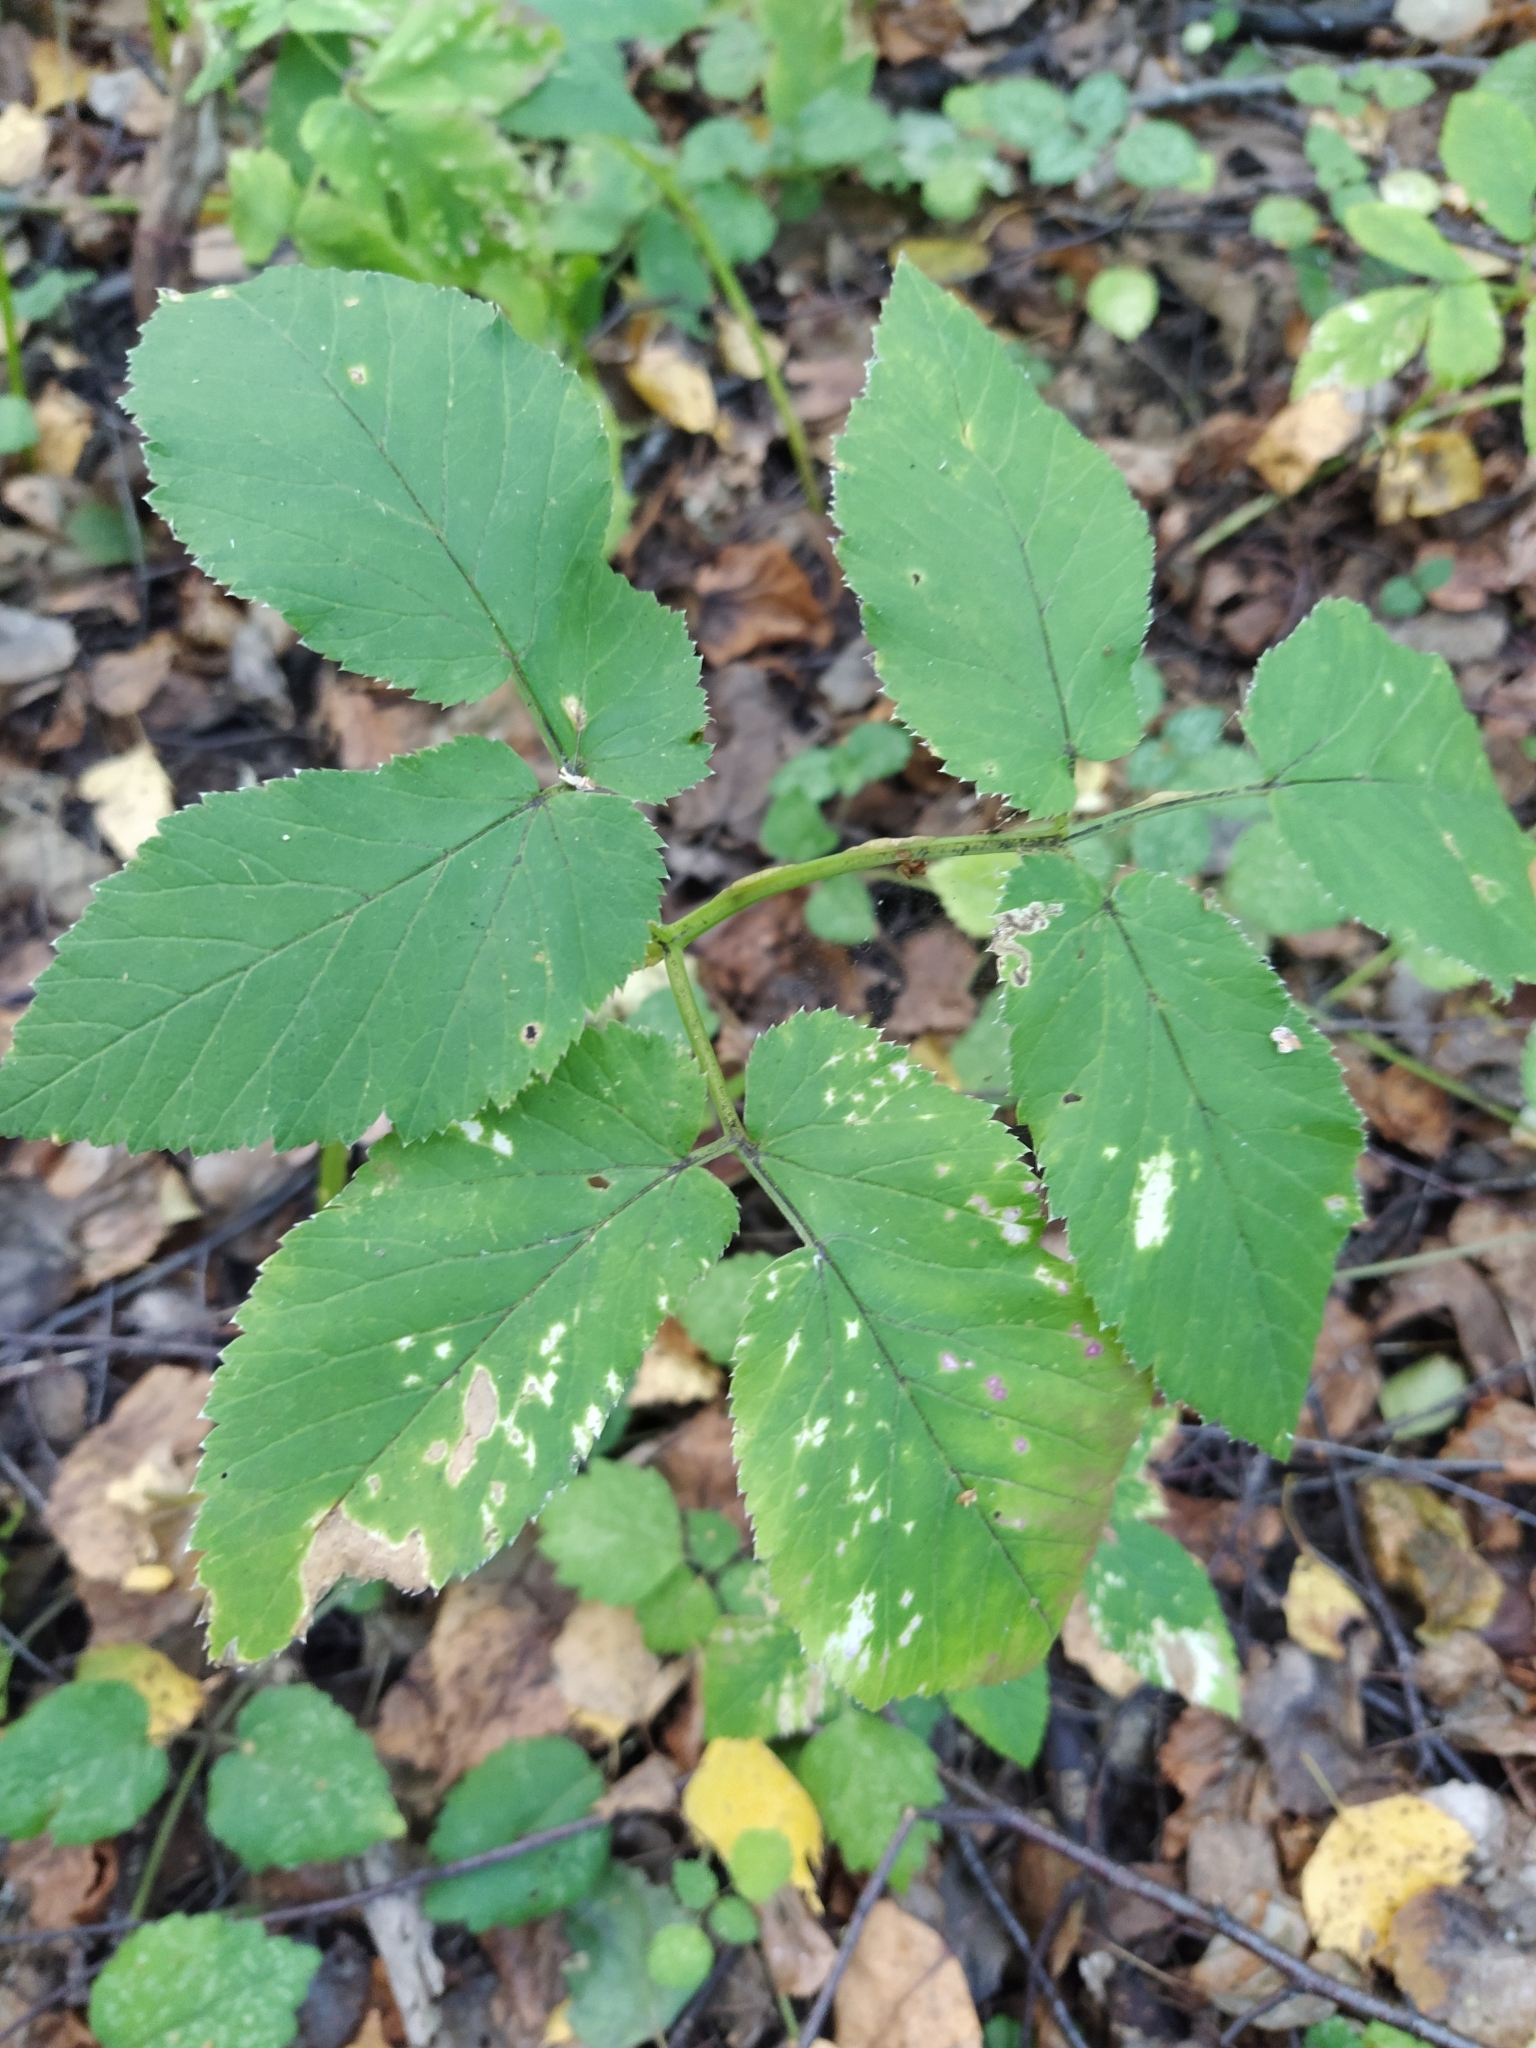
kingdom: Plantae
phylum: Tracheophyta
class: Magnoliopsida
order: Apiales
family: Apiaceae
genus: Aegopodium
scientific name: Aegopodium podagraria
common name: Ground-elder
